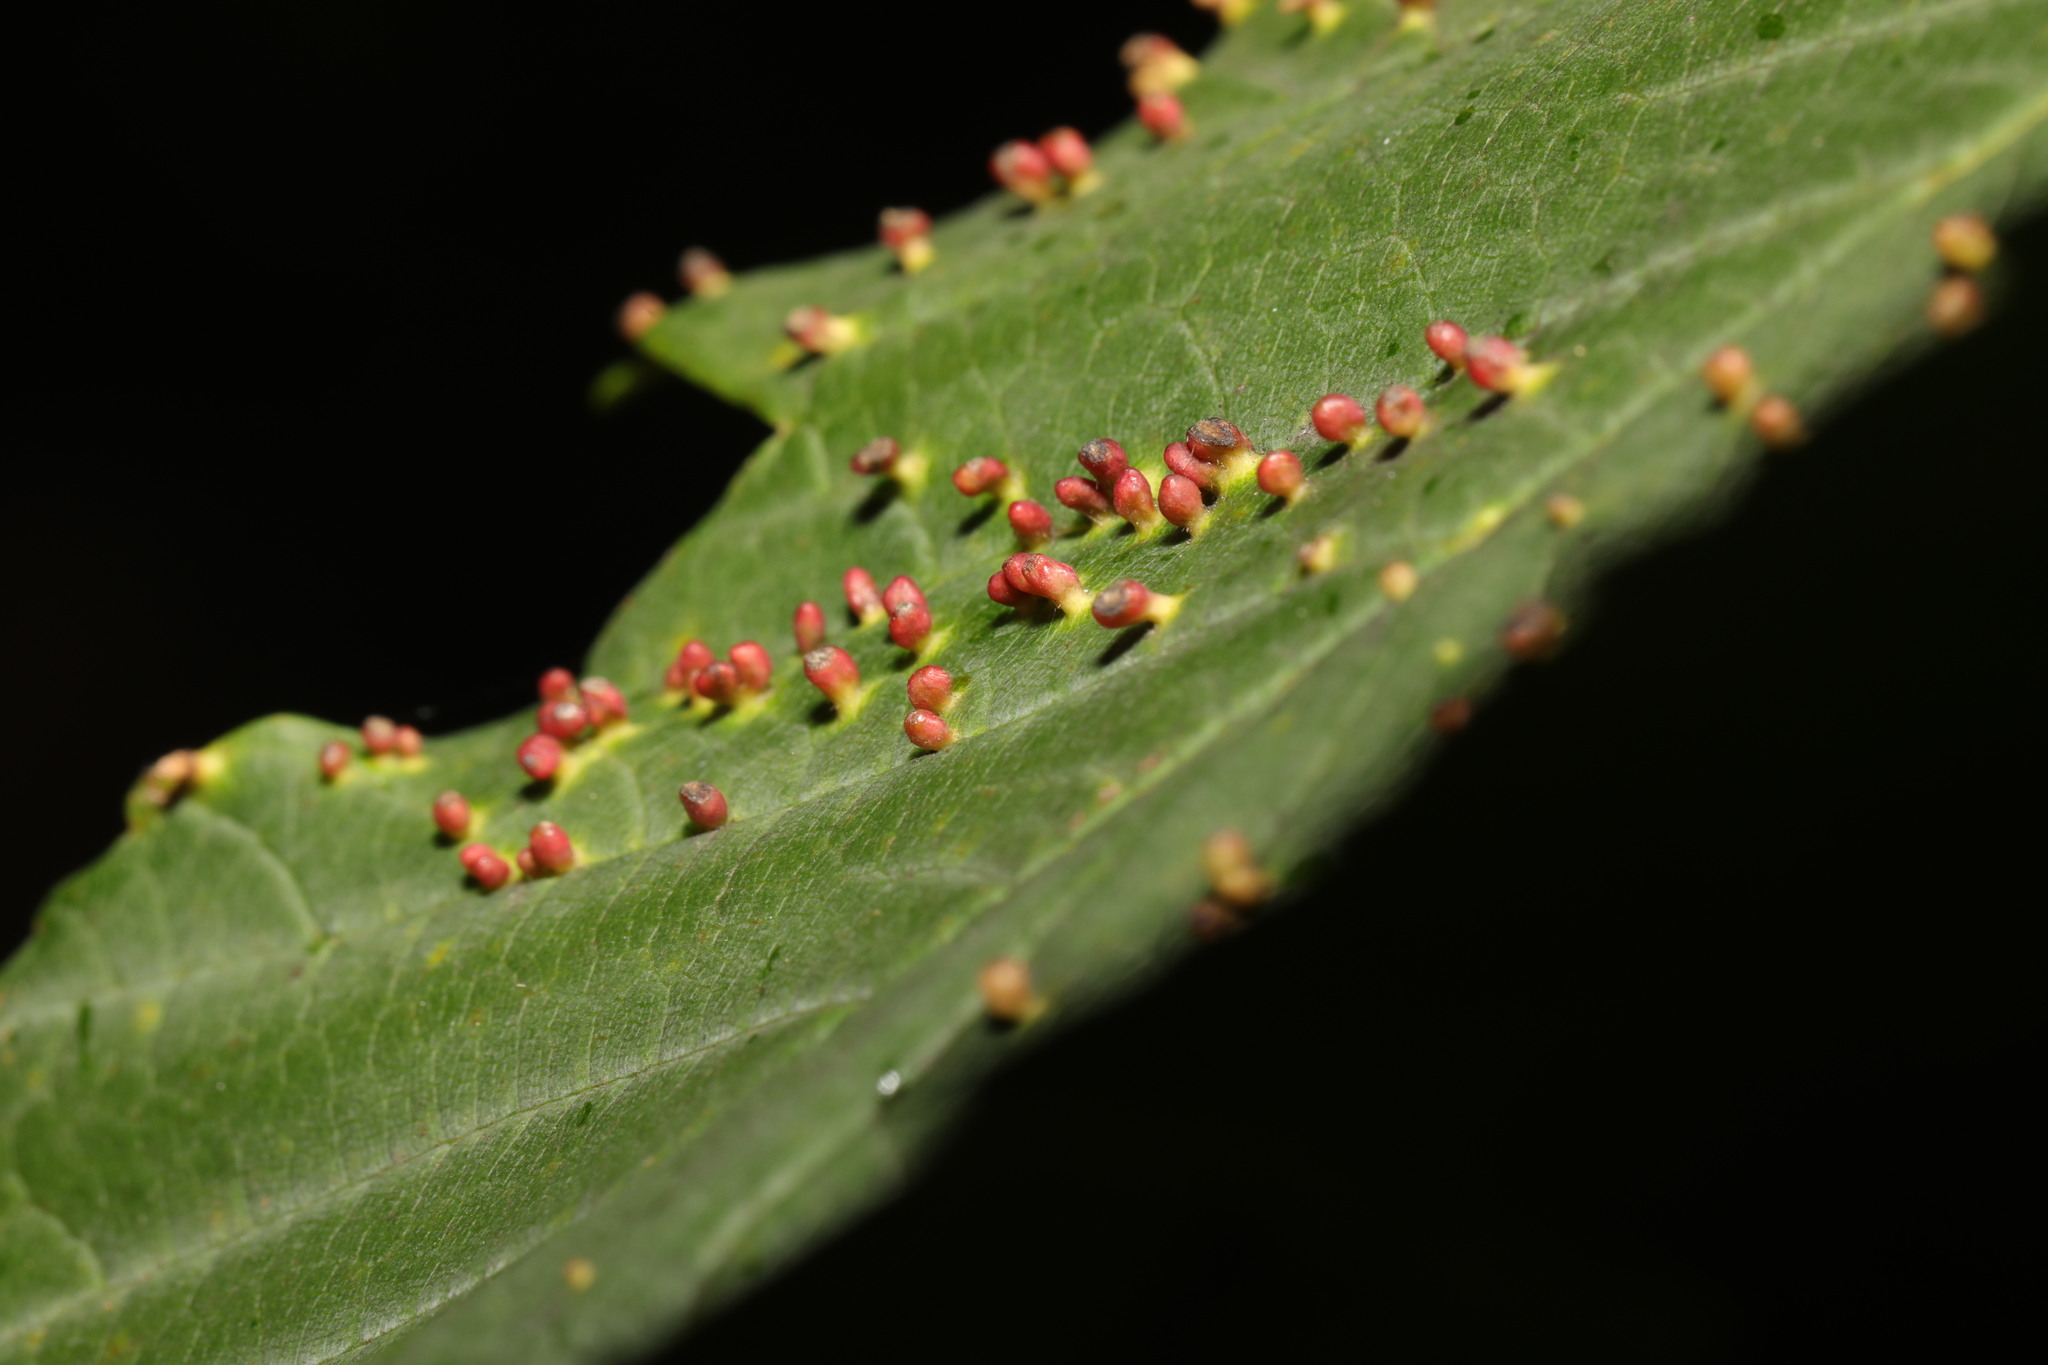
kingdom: Animalia
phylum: Arthropoda
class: Arachnida
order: Trombidiformes
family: Eriophyidae
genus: Aceria
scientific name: Aceria cephaloneus
